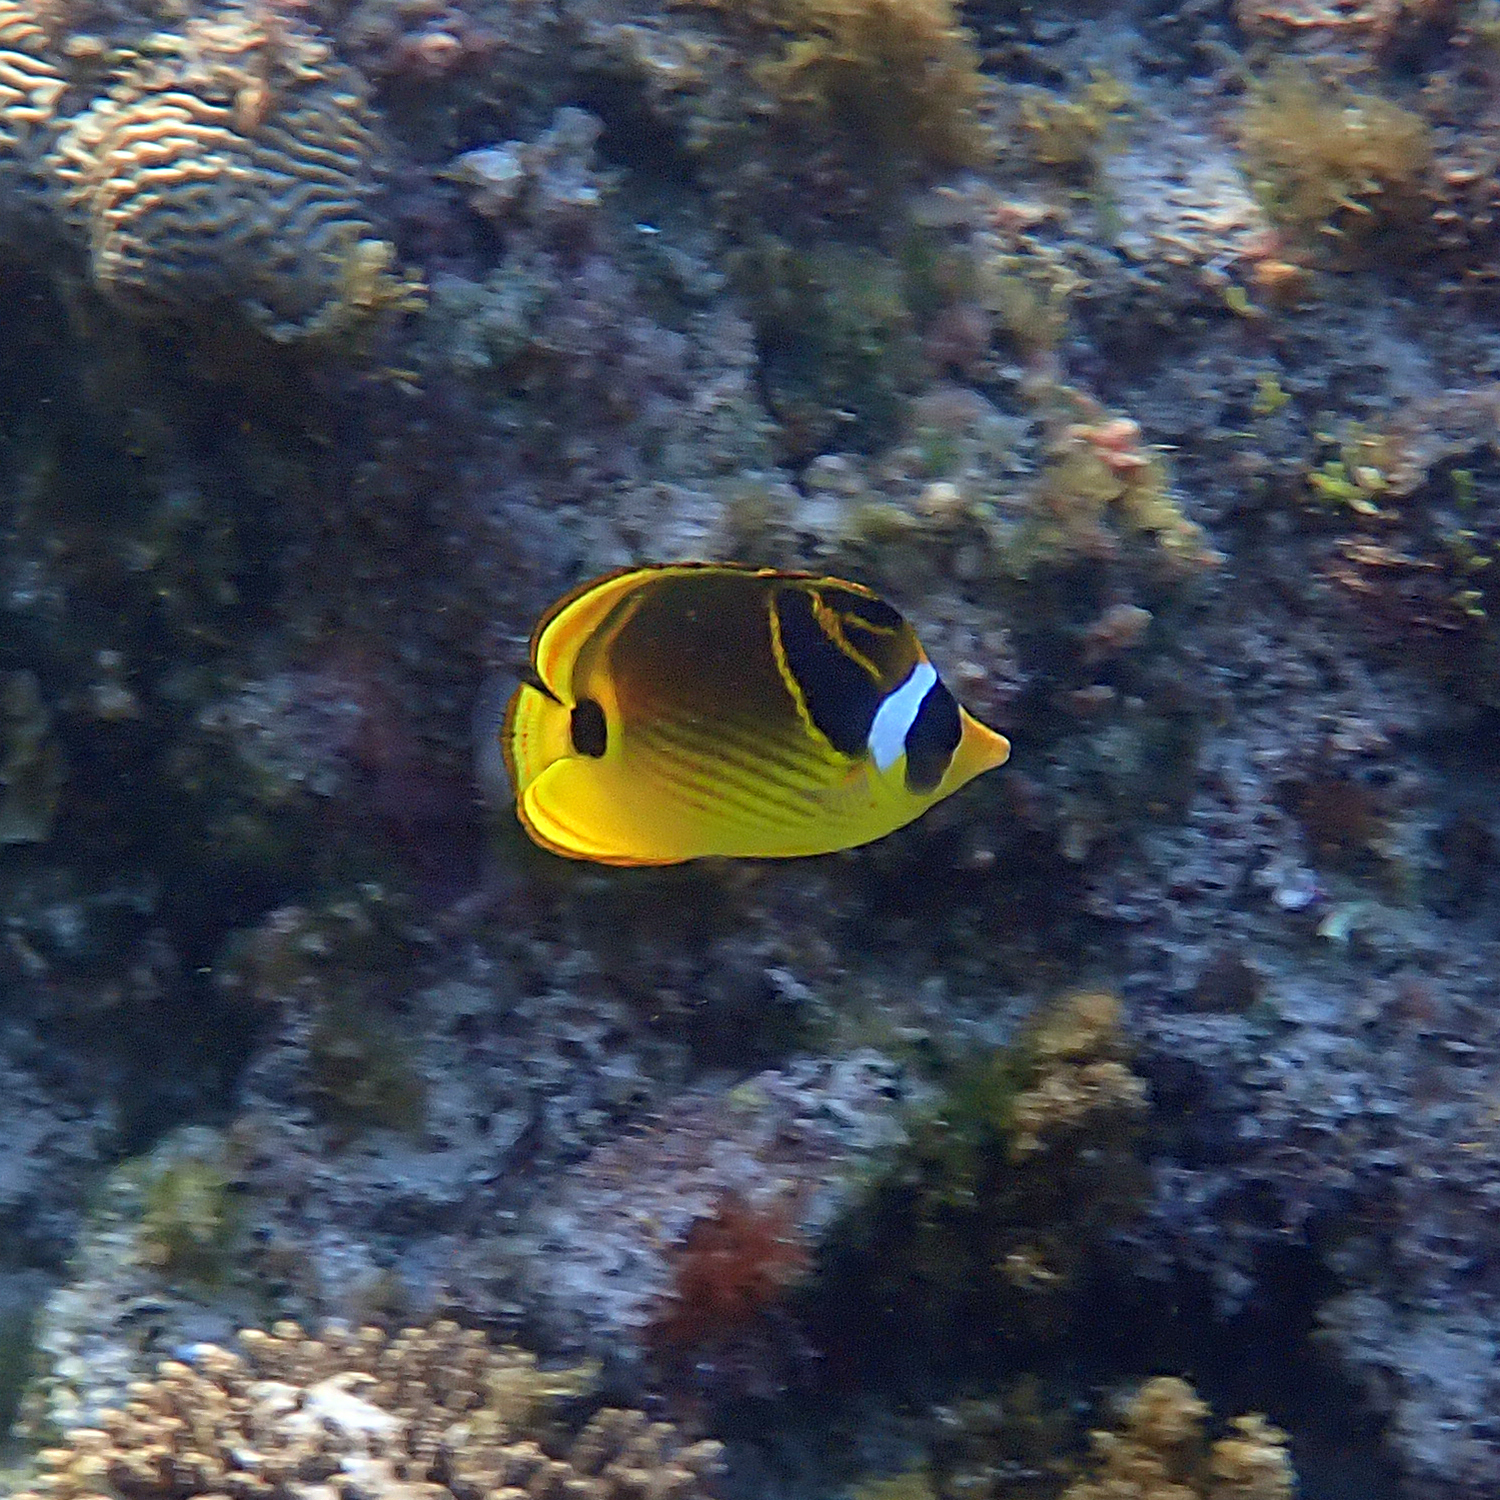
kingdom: Animalia
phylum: Chordata
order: Perciformes
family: Chaetodontidae
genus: Chaetodon
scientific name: Chaetodon lunula
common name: Raccoon butterflyfish
